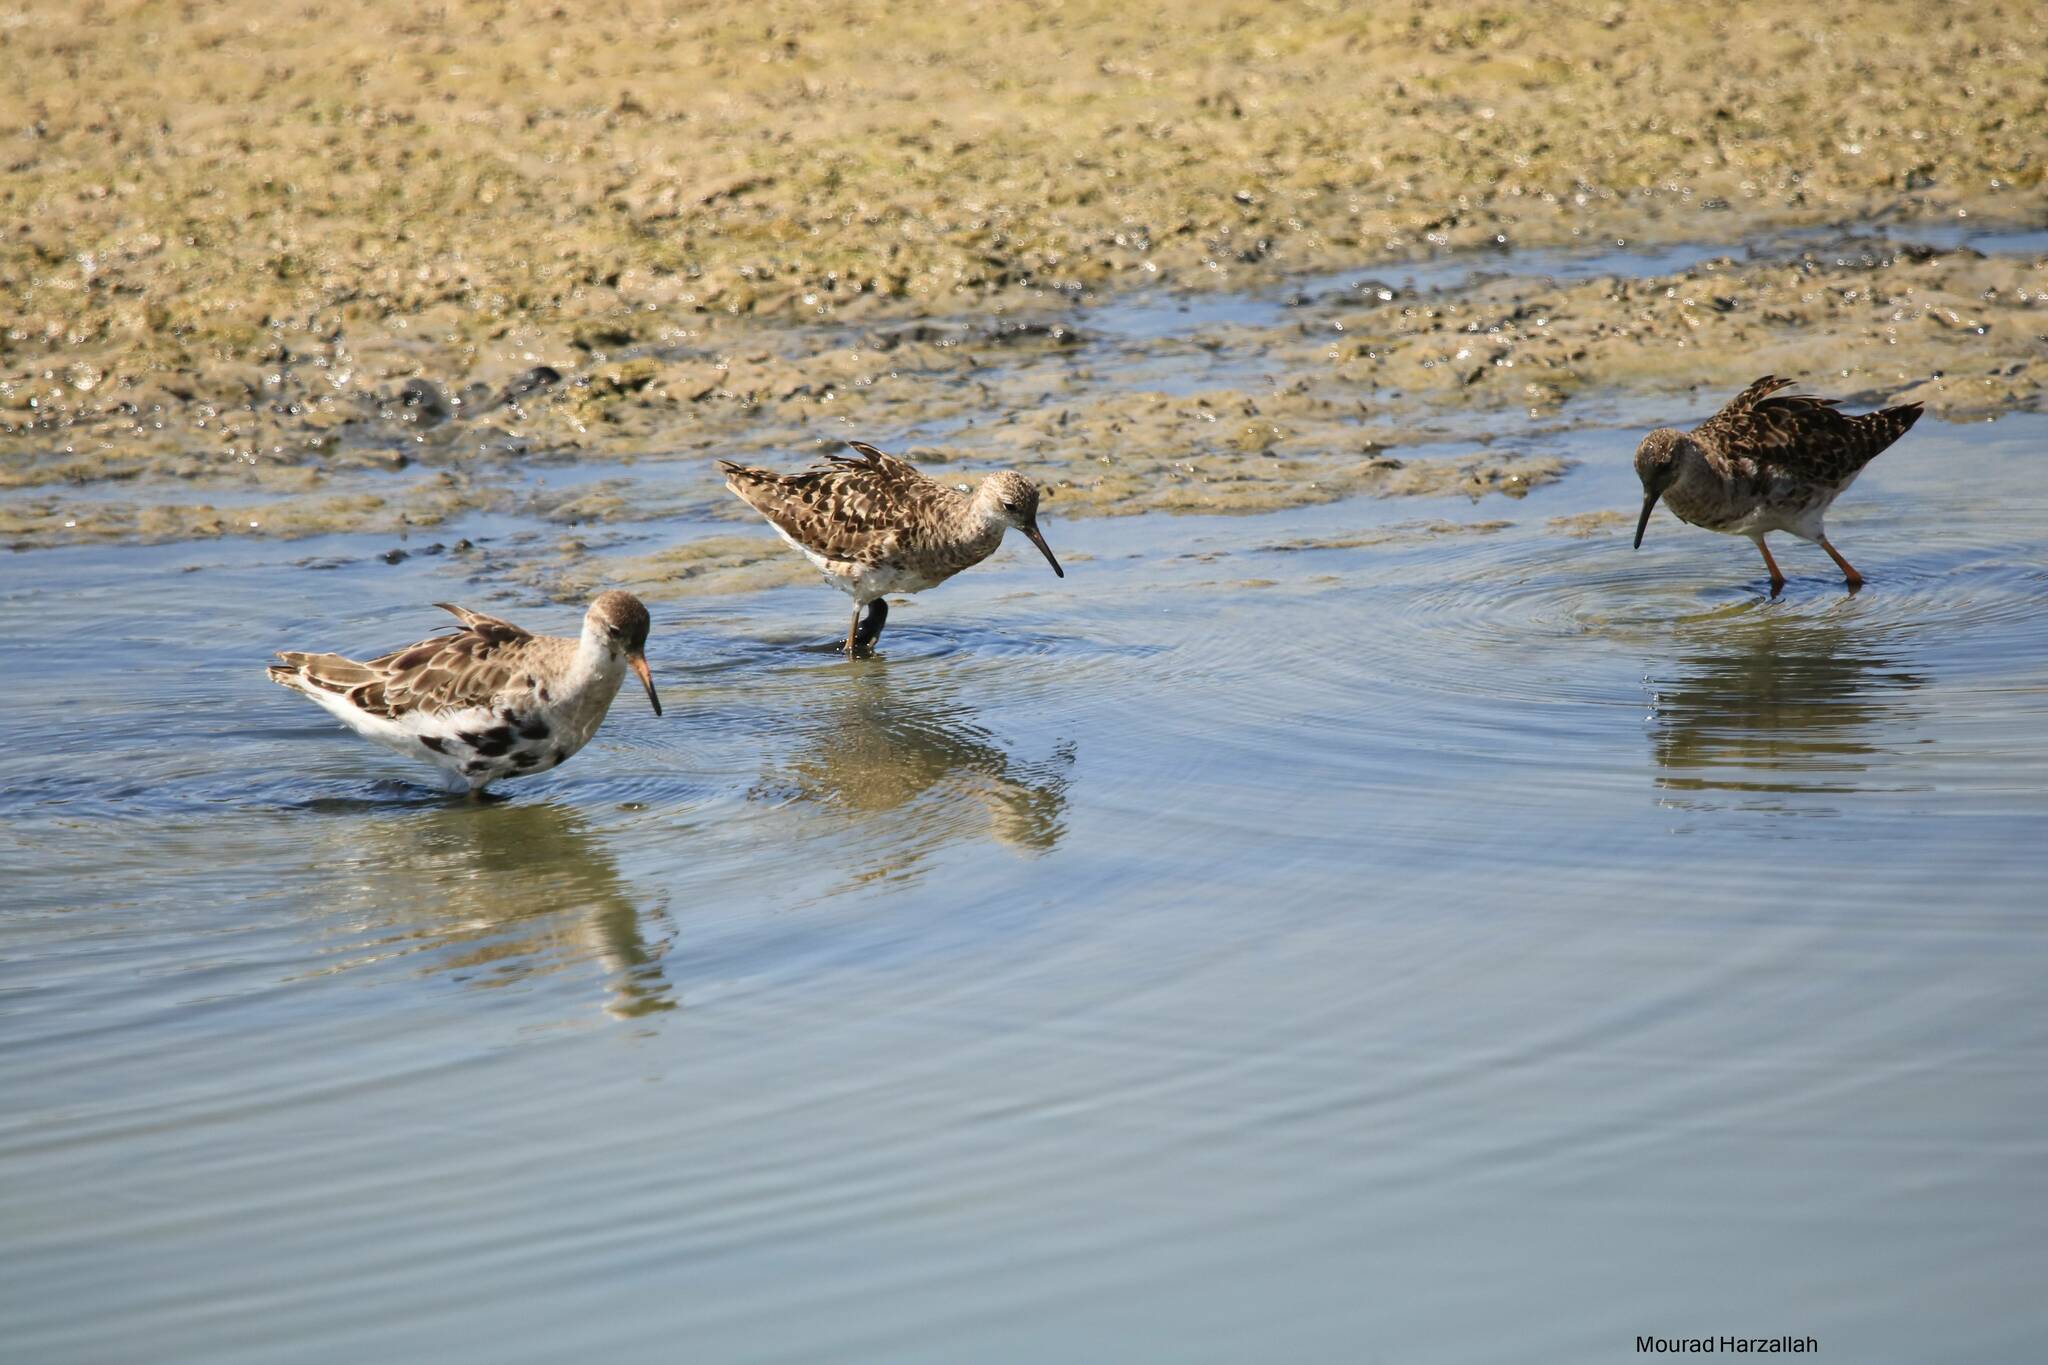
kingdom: Animalia
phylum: Chordata
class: Aves
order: Charadriiformes
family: Scolopacidae
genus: Calidris
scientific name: Calidris pugnax
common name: Ruff
